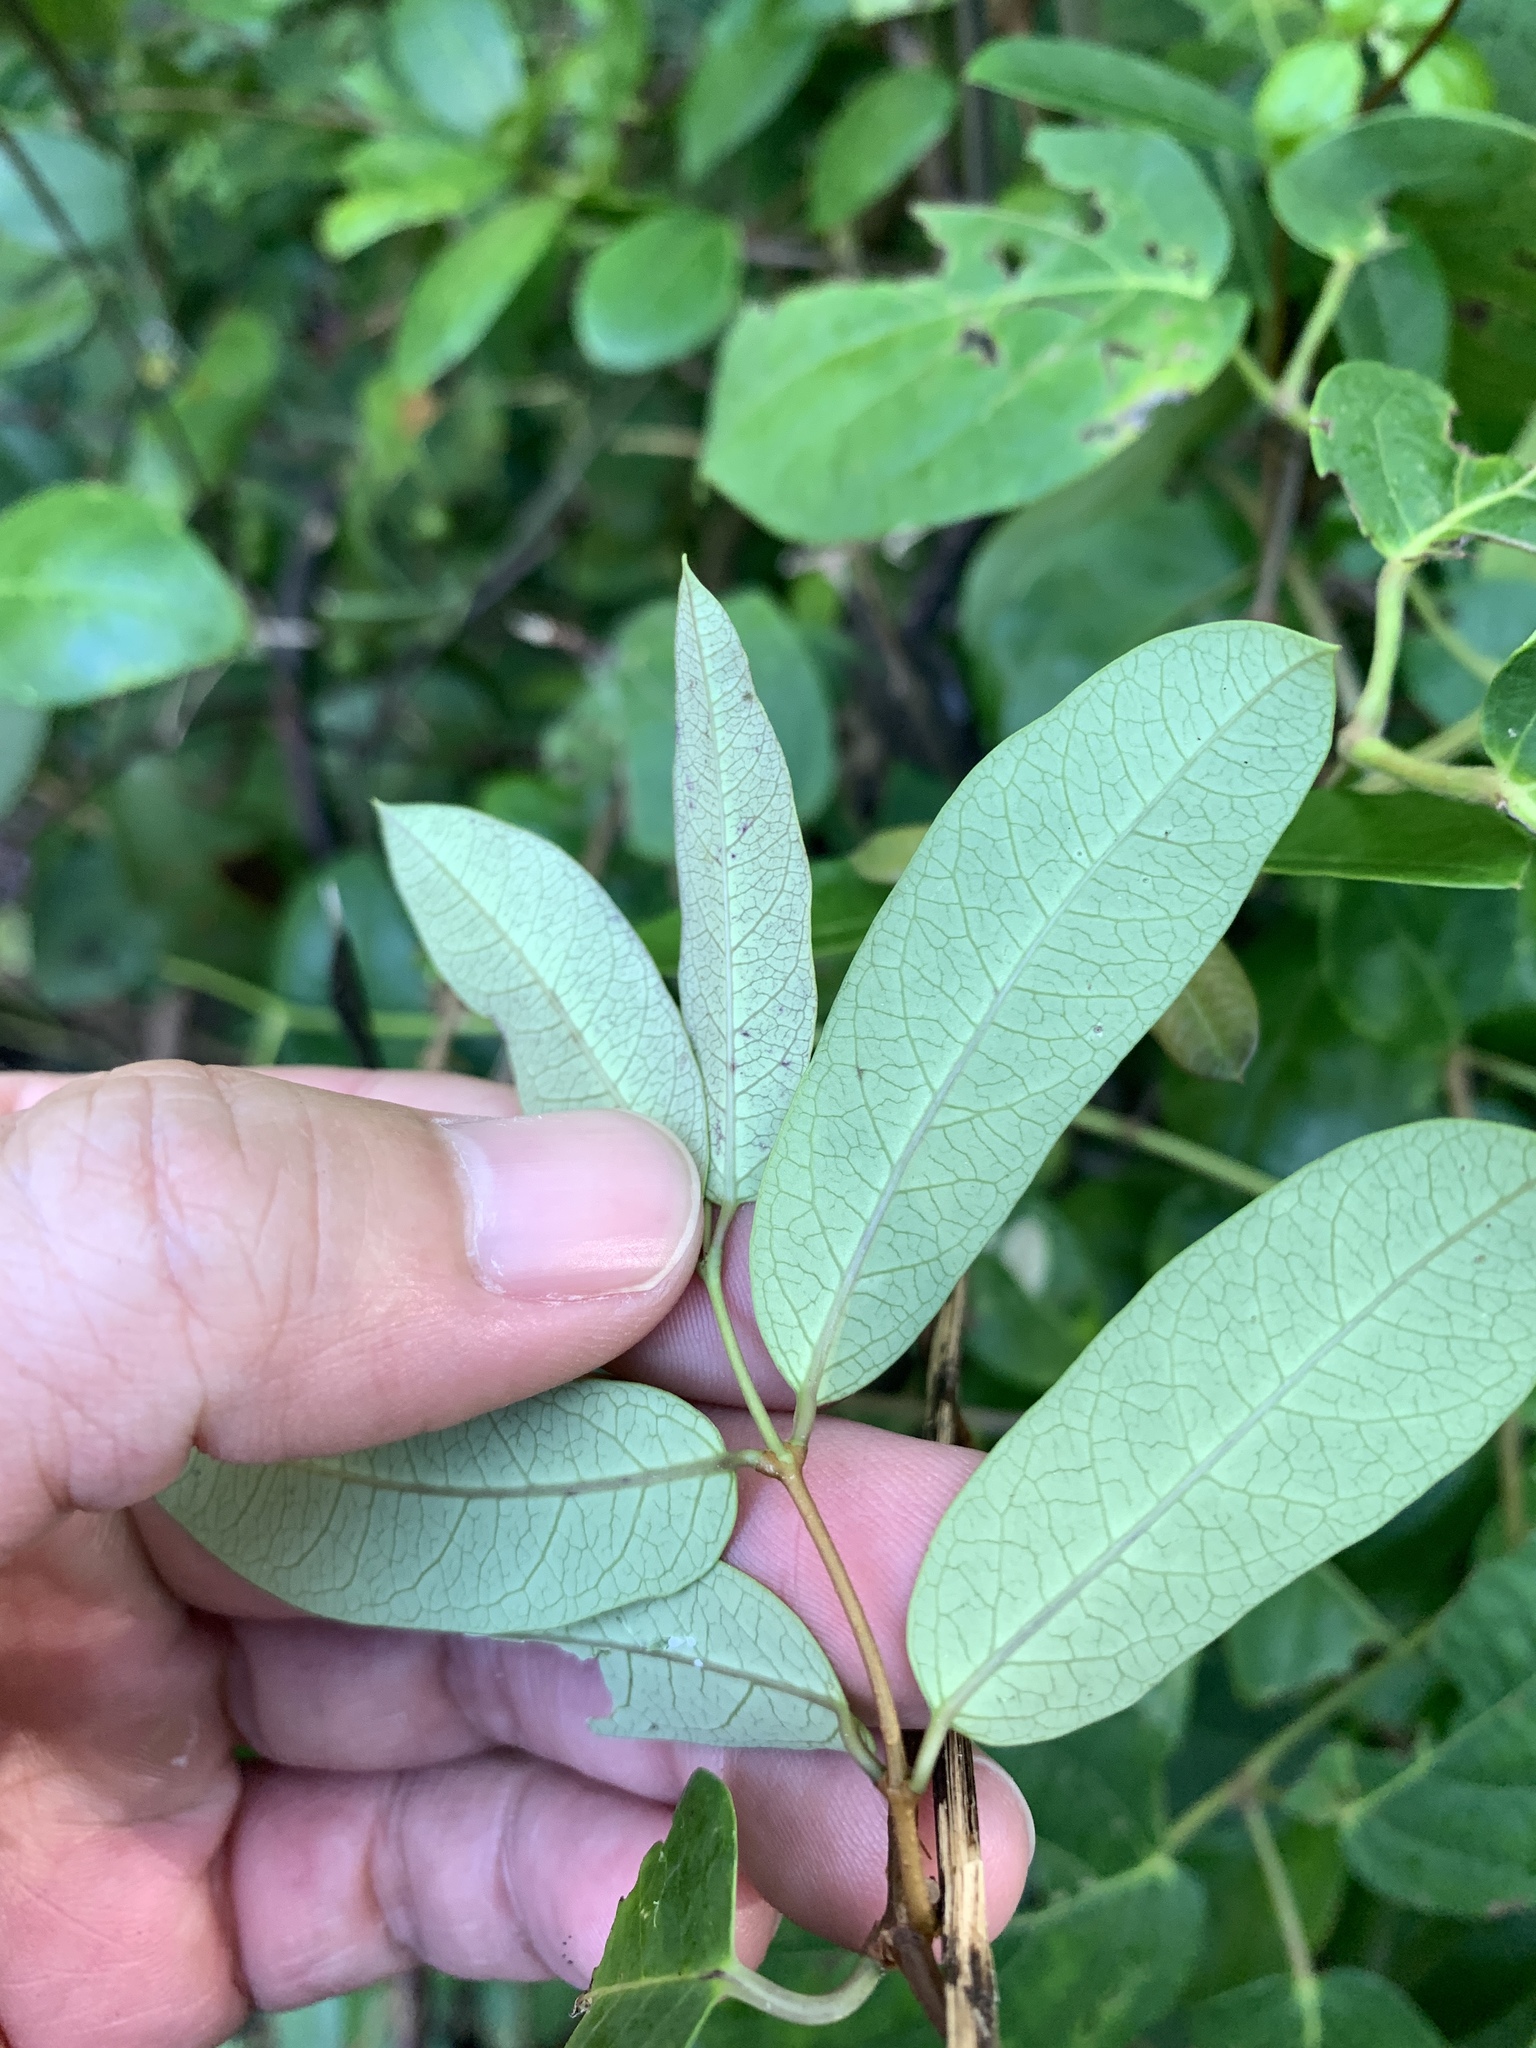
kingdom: Plantae
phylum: Tracheophyta
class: Magnoliopsida
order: Gentianales
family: Apocynaceae
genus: Cryptolepis
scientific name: Cryptolepis sinensis
